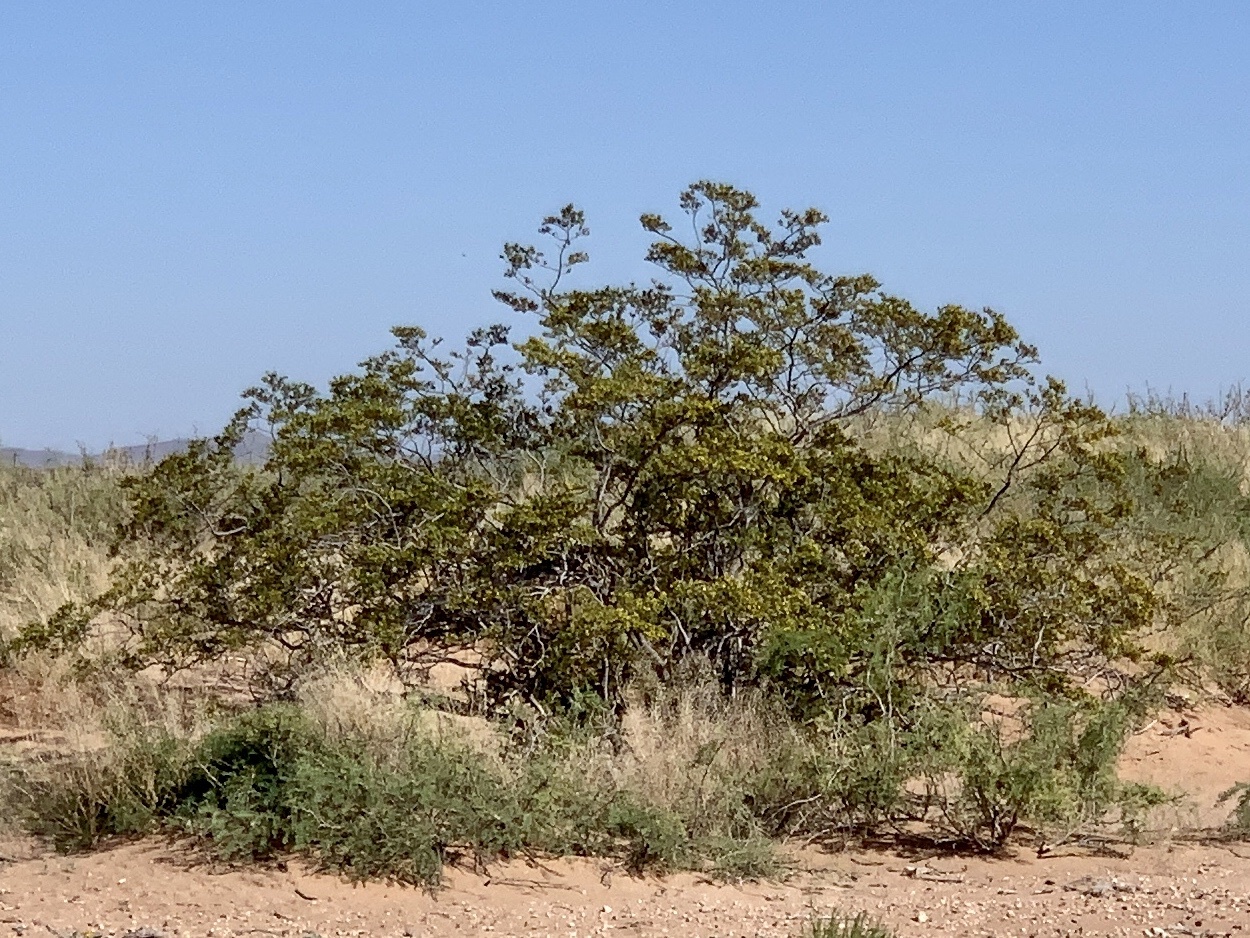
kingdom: Plantae
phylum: Tracheophyta
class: Magnoliopsida
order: Zygophyllales
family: Zygophyllaceae
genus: Larrea
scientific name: Larrea tridentata
